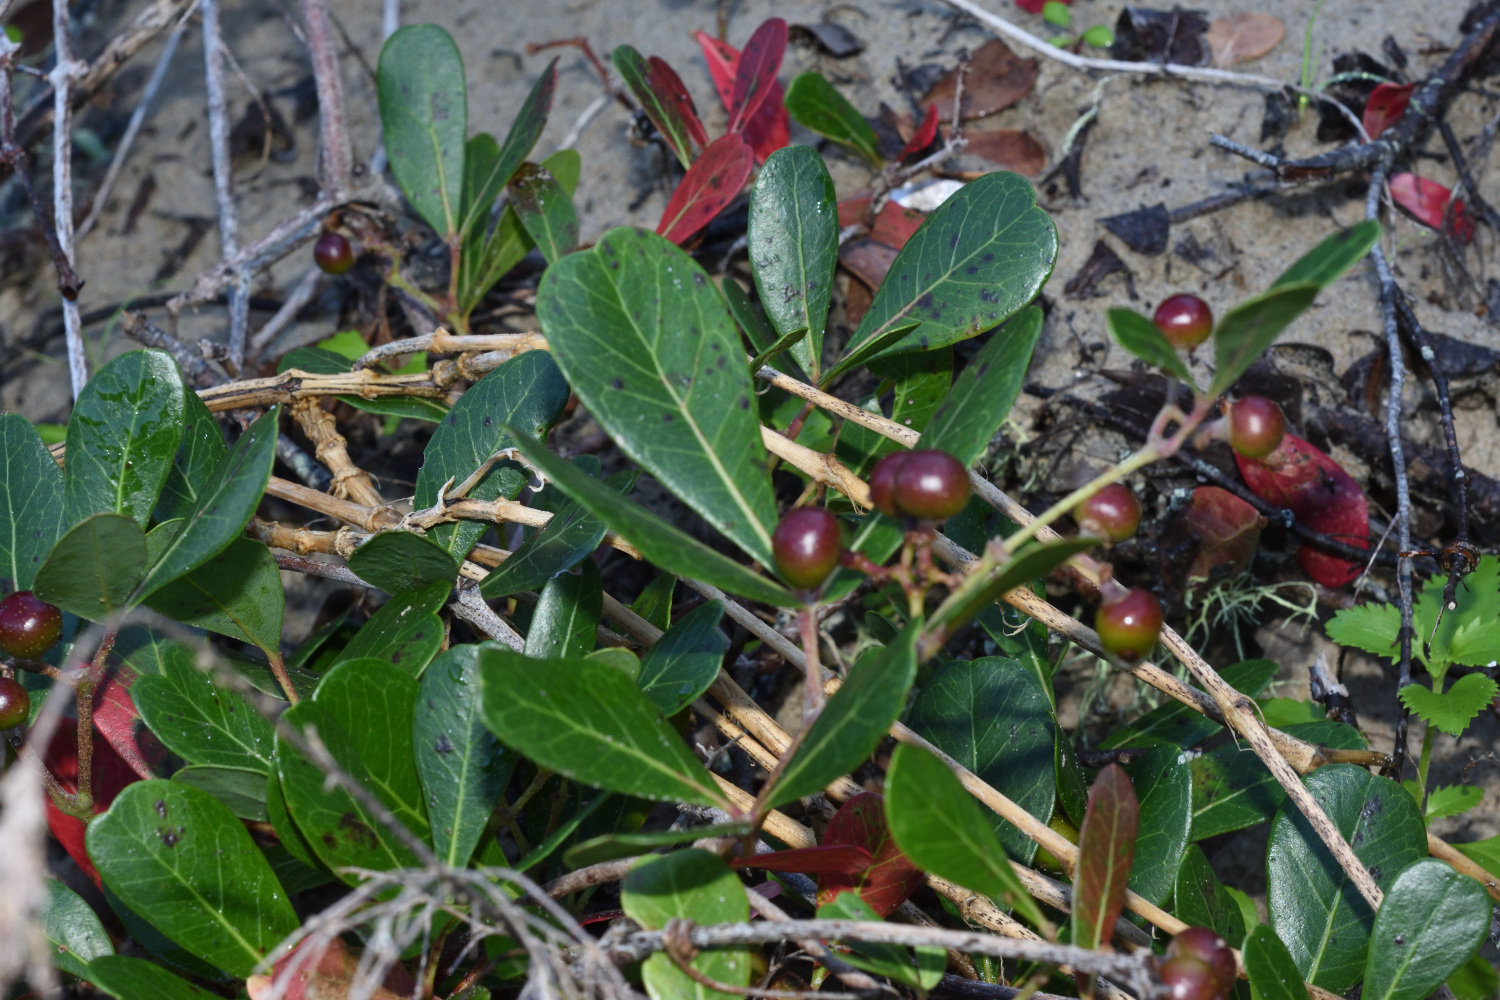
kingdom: Plantae
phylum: Tracheophyta
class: Magnoliopsida
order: Vitales
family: Vitaceae
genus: Rhoicissus
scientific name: Rhoicissus digitata
